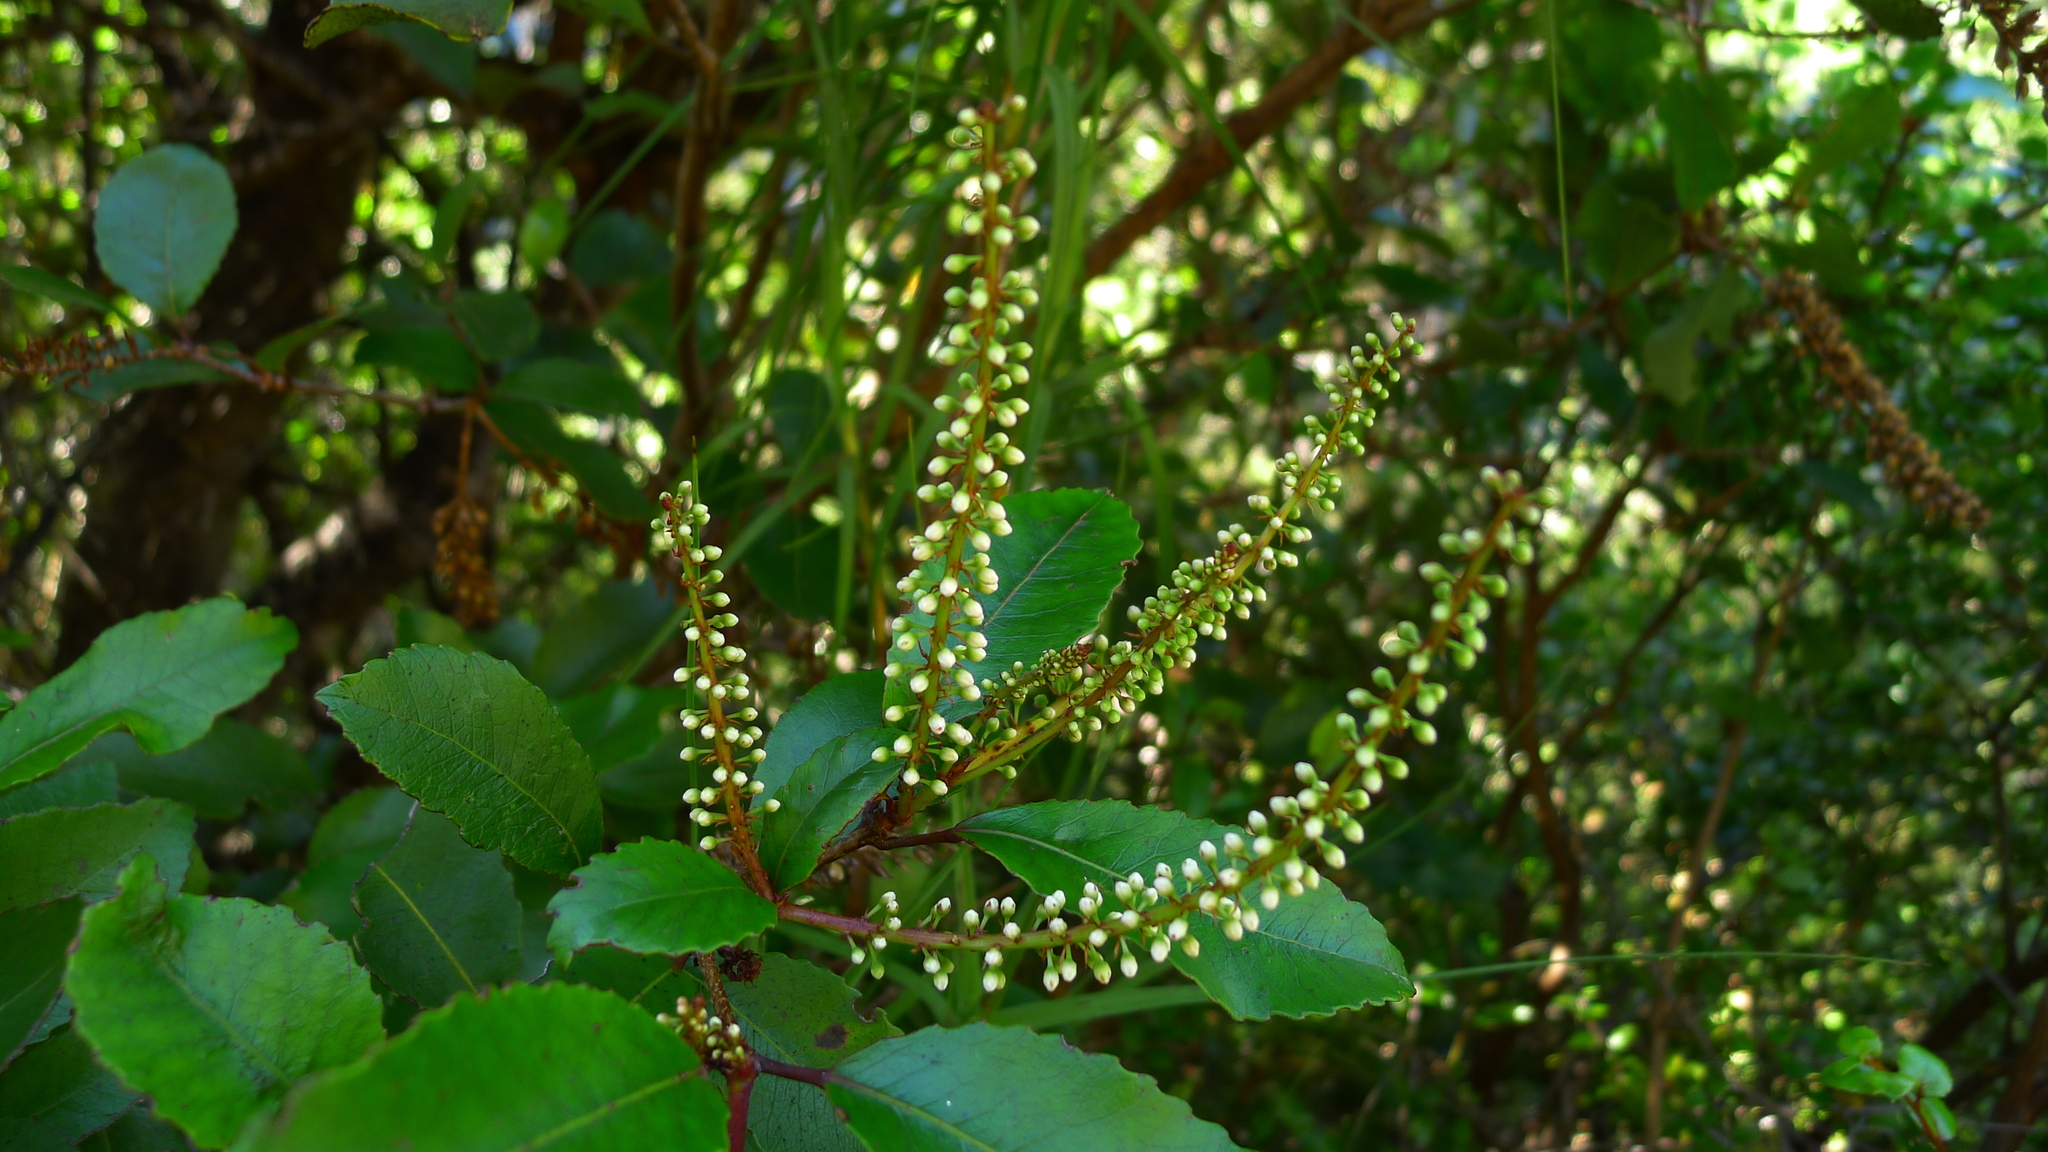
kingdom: Plantae
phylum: Tracheophyta
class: Magnoliopsida
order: Oxalidales
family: Cunoniaceae
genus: Pterophylla
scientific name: Pterophylla racemosa
